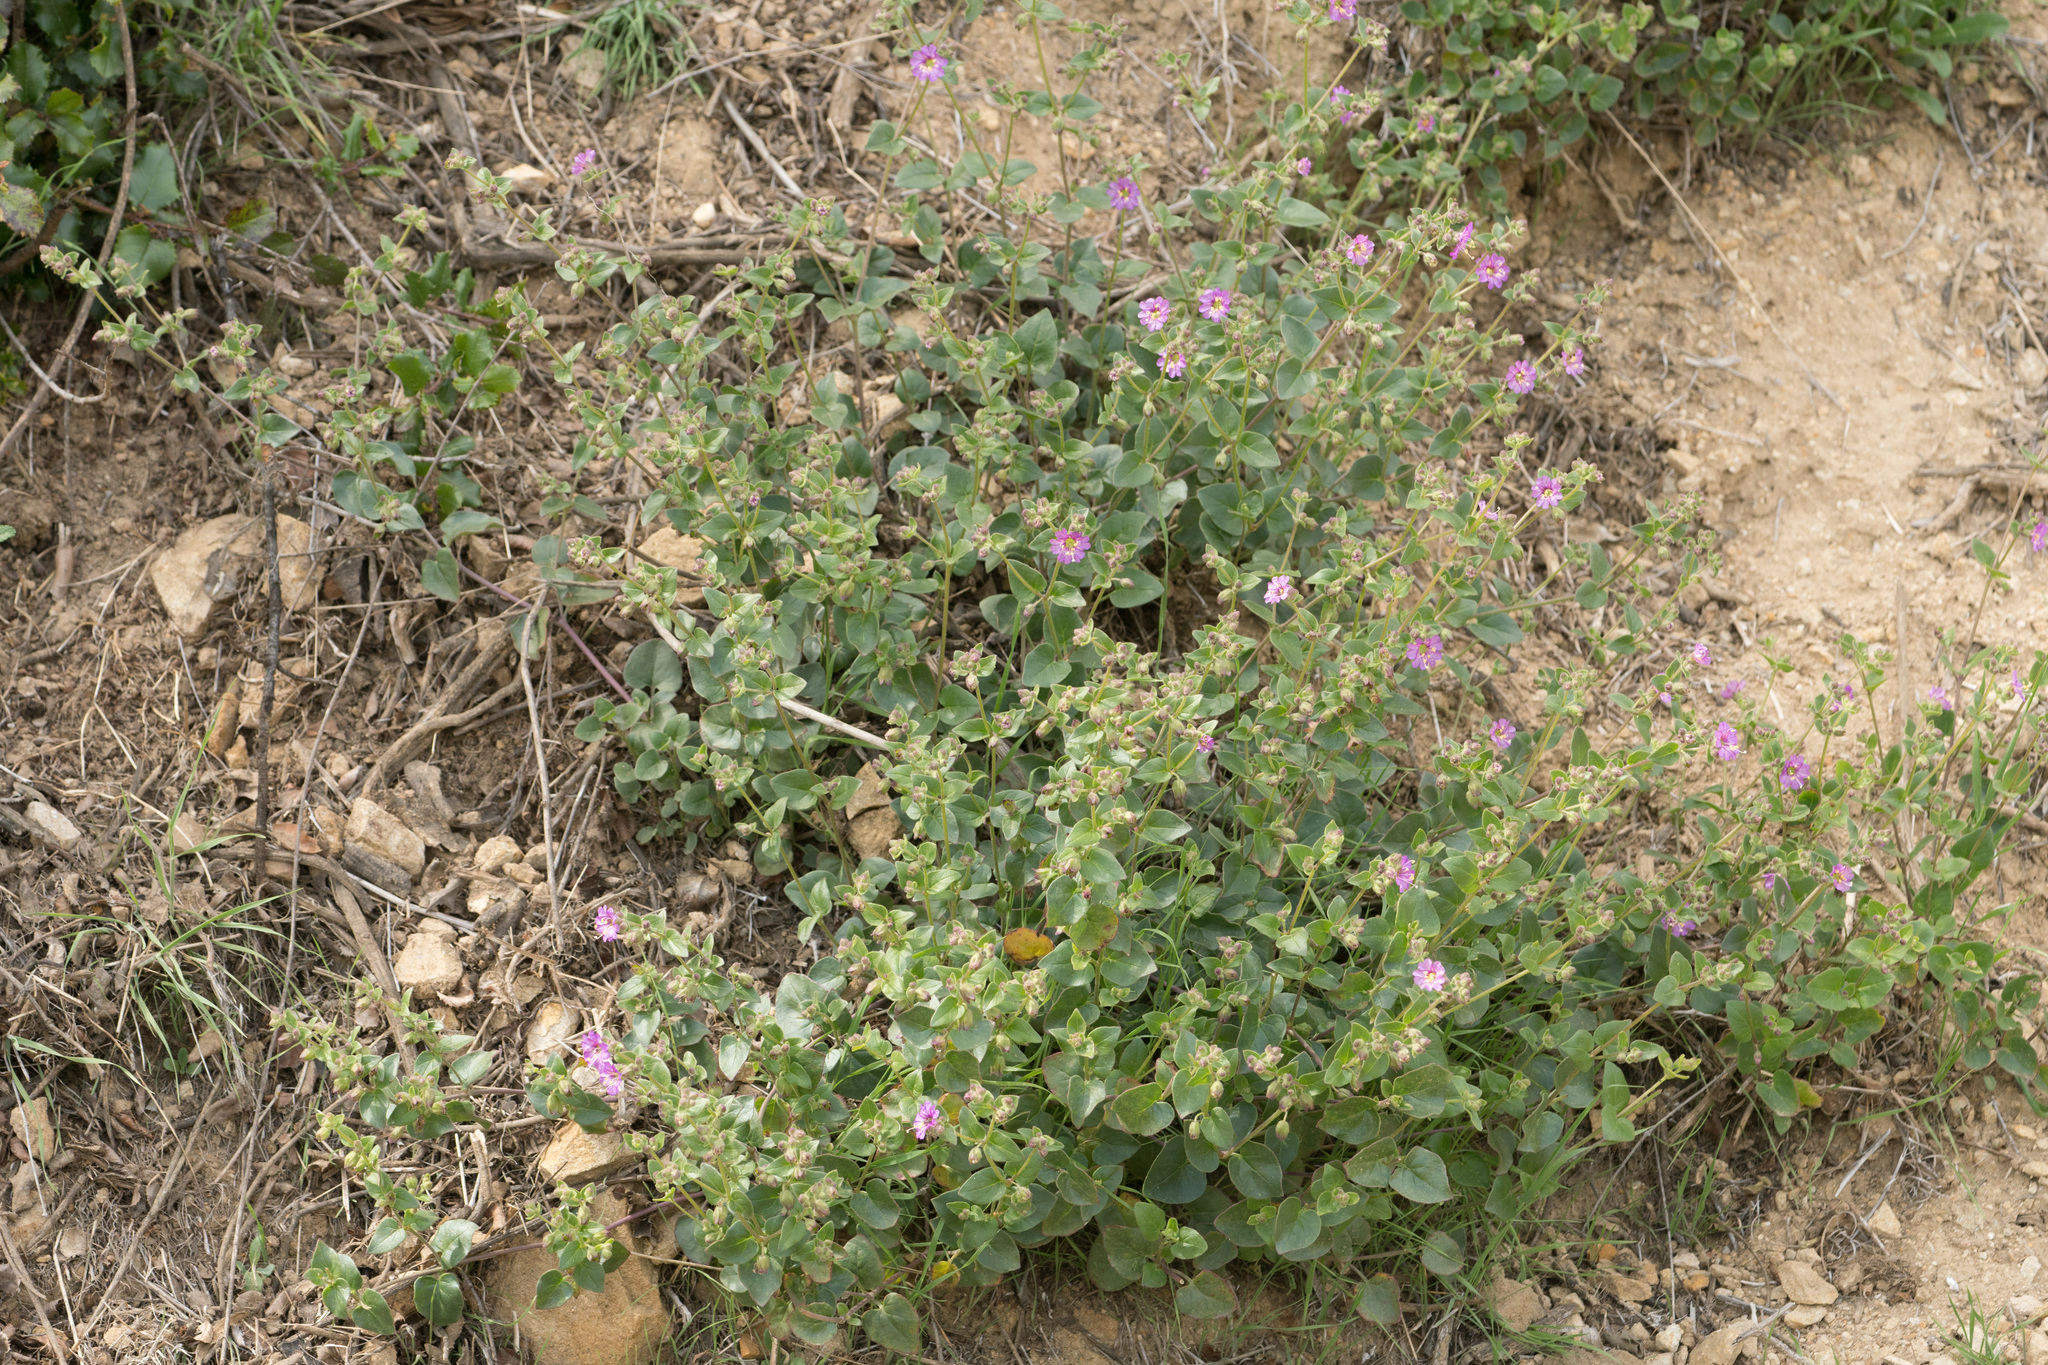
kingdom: Plantae
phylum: Tracheophyta
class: Magnoliopsida
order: Caryophyllales
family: Nyctaginaceae
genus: Mirabilis
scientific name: Mirabilis laevis
